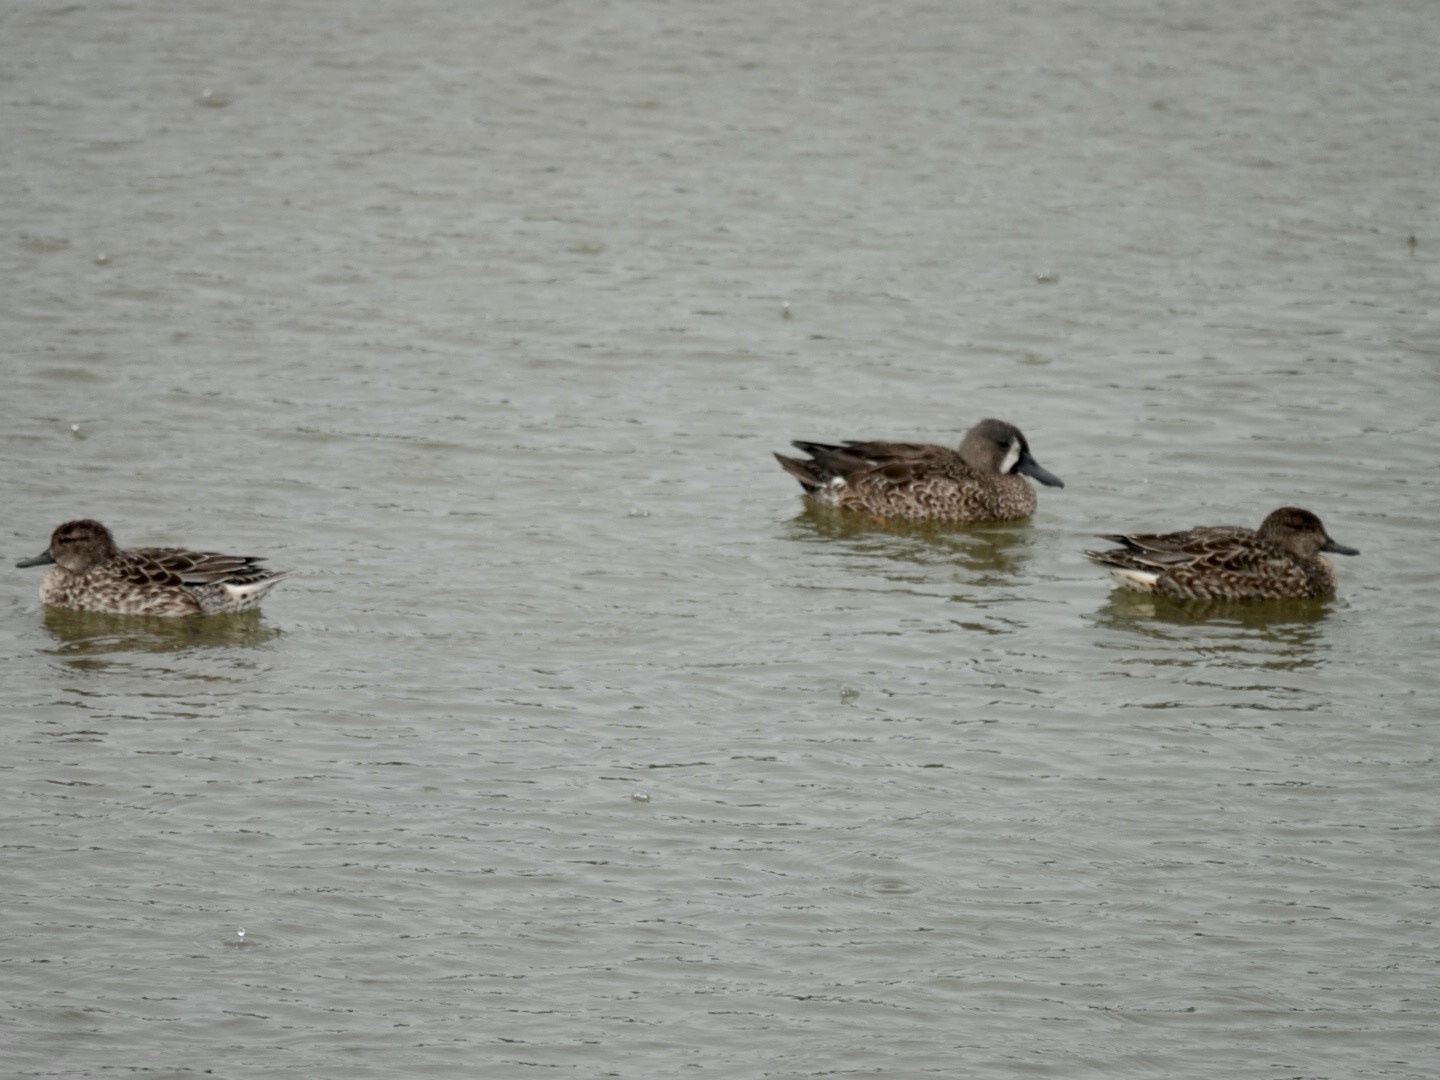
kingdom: Animalia
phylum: Chordata
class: Aves
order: Anseriformes
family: Anatidae
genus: Spatula
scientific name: Spatula discors
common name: Blue-winged teal
